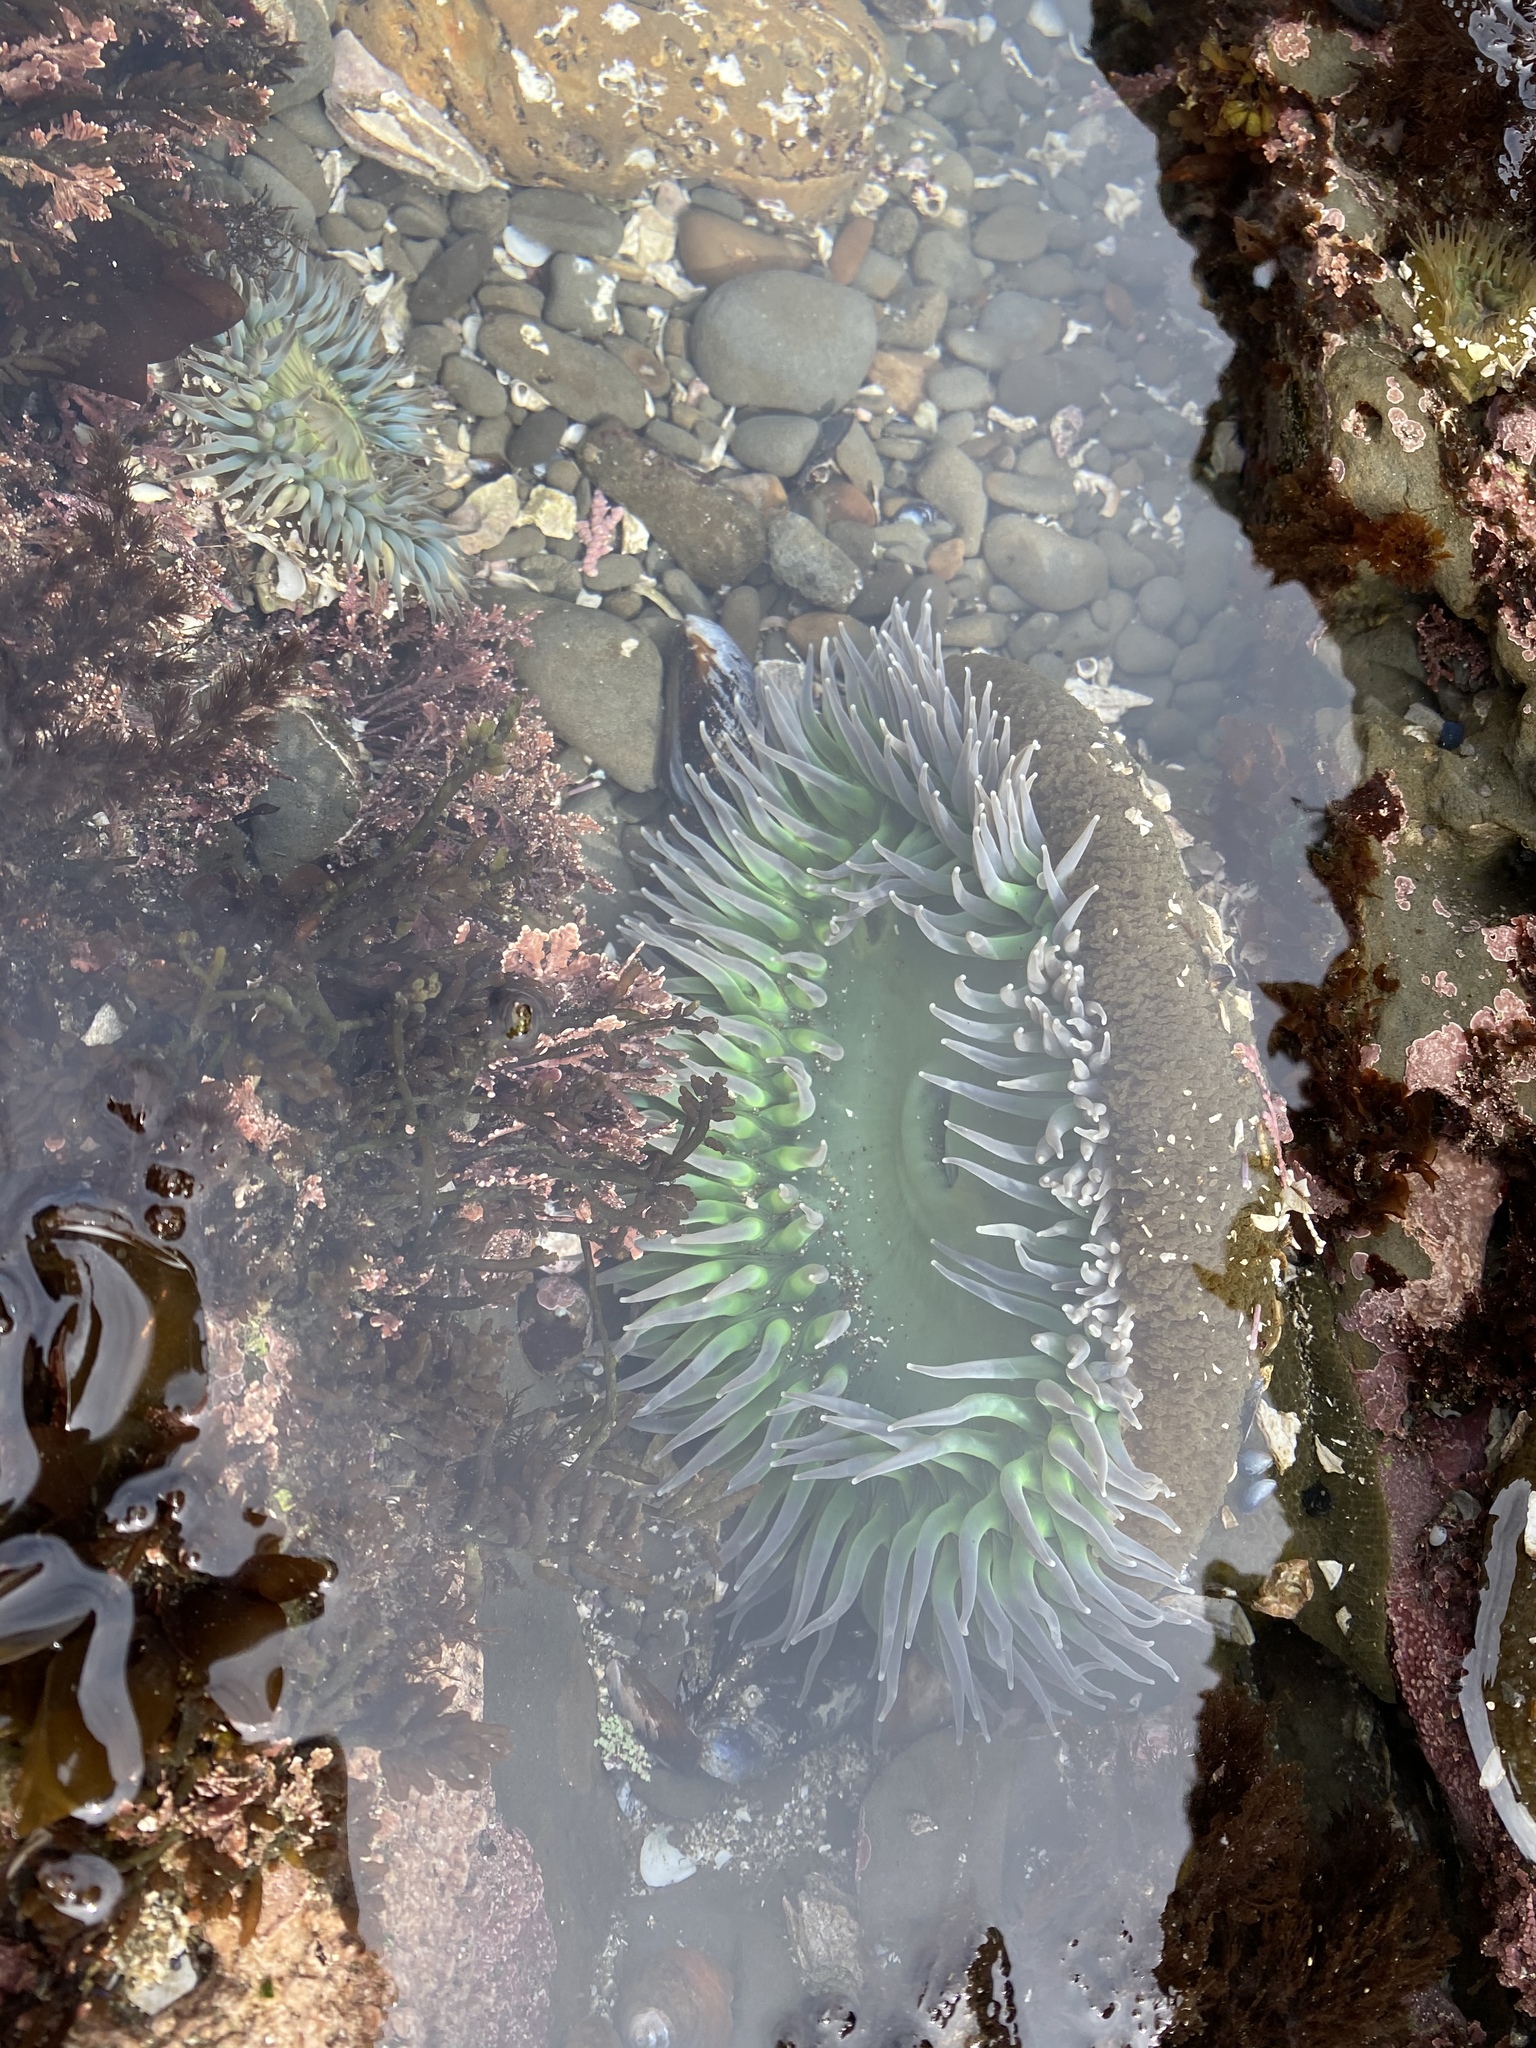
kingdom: Animalia
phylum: Cnidaria
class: Anthozoa
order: Actiniaria
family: Actiniidae
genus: Anthopleura
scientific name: Anthopleura xanthogrammica
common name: Giant green anemone
